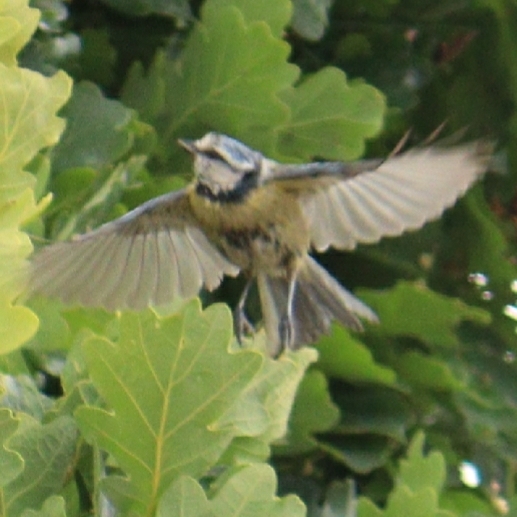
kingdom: Animalia
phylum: Chordata
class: Aves
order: Passeriformes
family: Paridae
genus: Cyanistes
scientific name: Cyanistes caeruleus
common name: Eurasian blue tit
